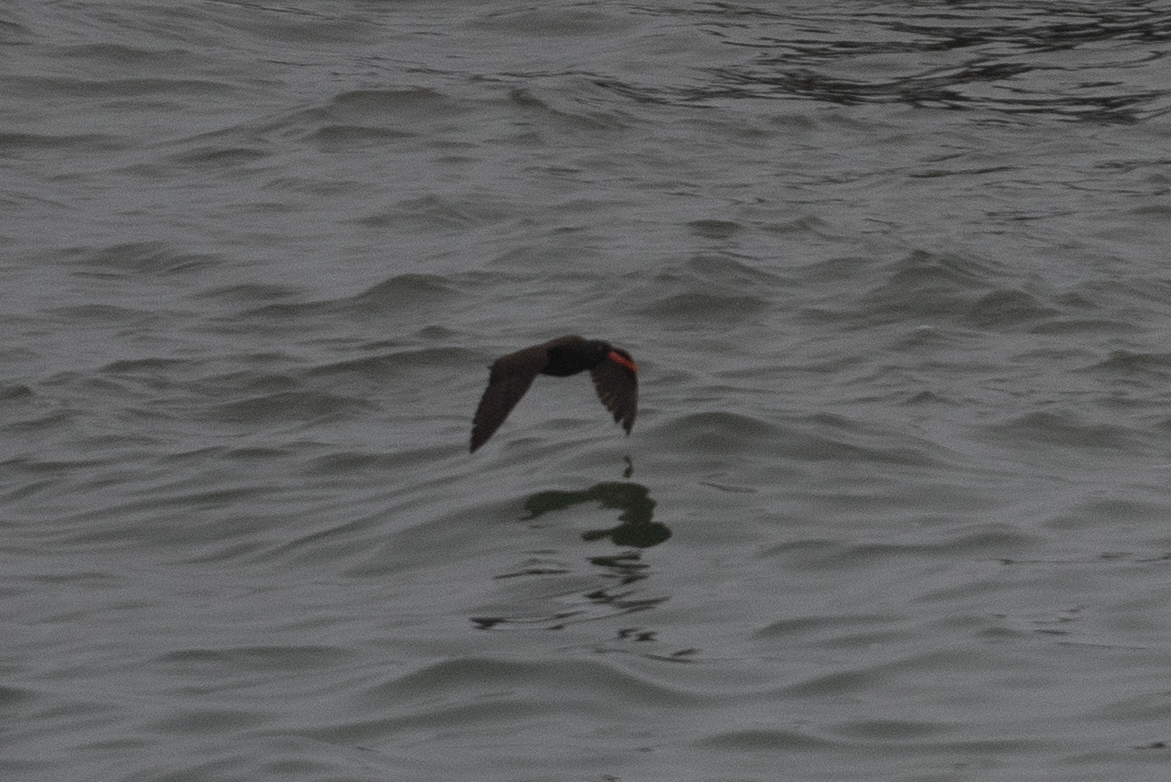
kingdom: Animalia
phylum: Chordata
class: Aves
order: Charadriiformes
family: Haematopodidae
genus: Haematopus
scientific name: Haematopus bachmani
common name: Black oystercatcher
